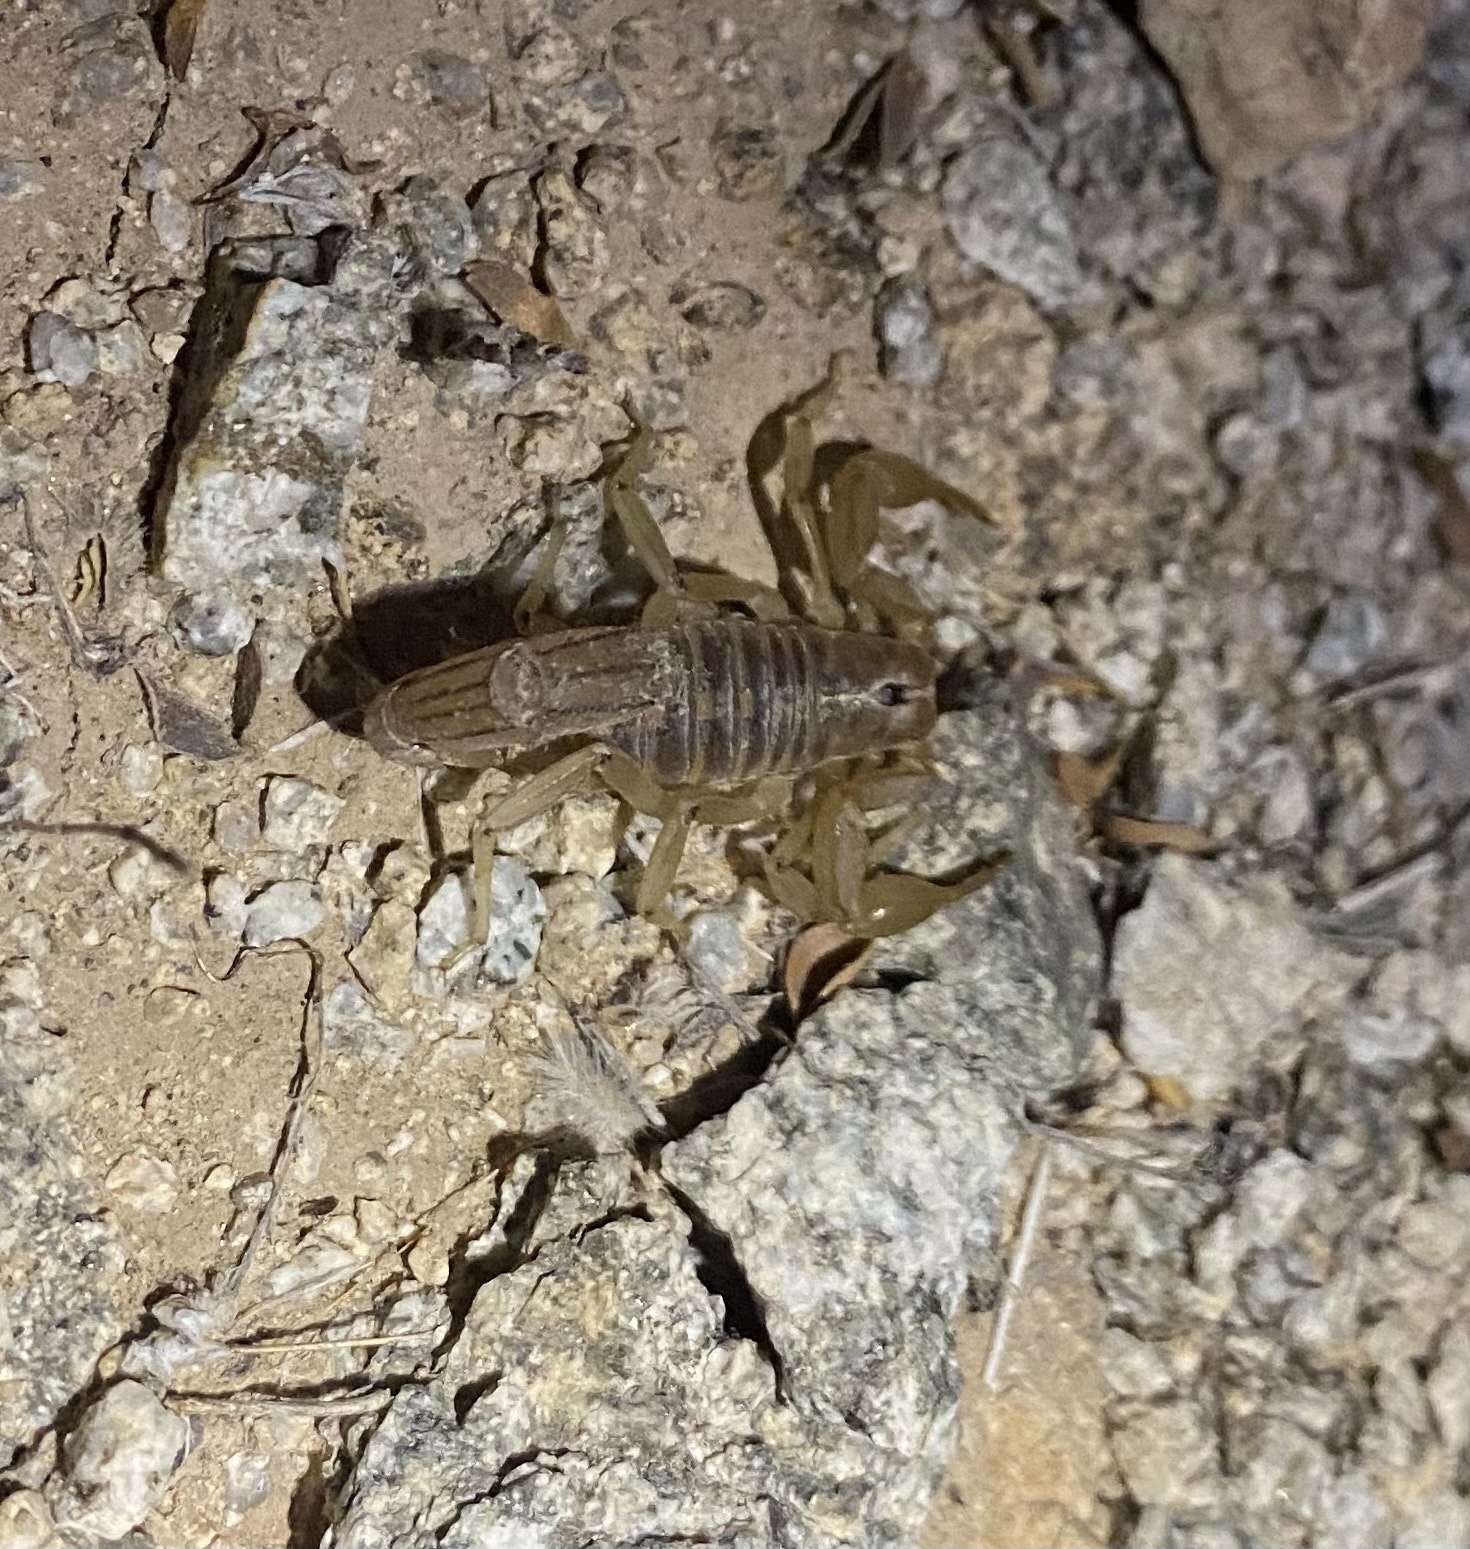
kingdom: Animalia
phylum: Arthropoda
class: Arachnida
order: Scorpiones
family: Vaejovidae
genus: Paravaejovis
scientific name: Paravaejovis spinigerus
